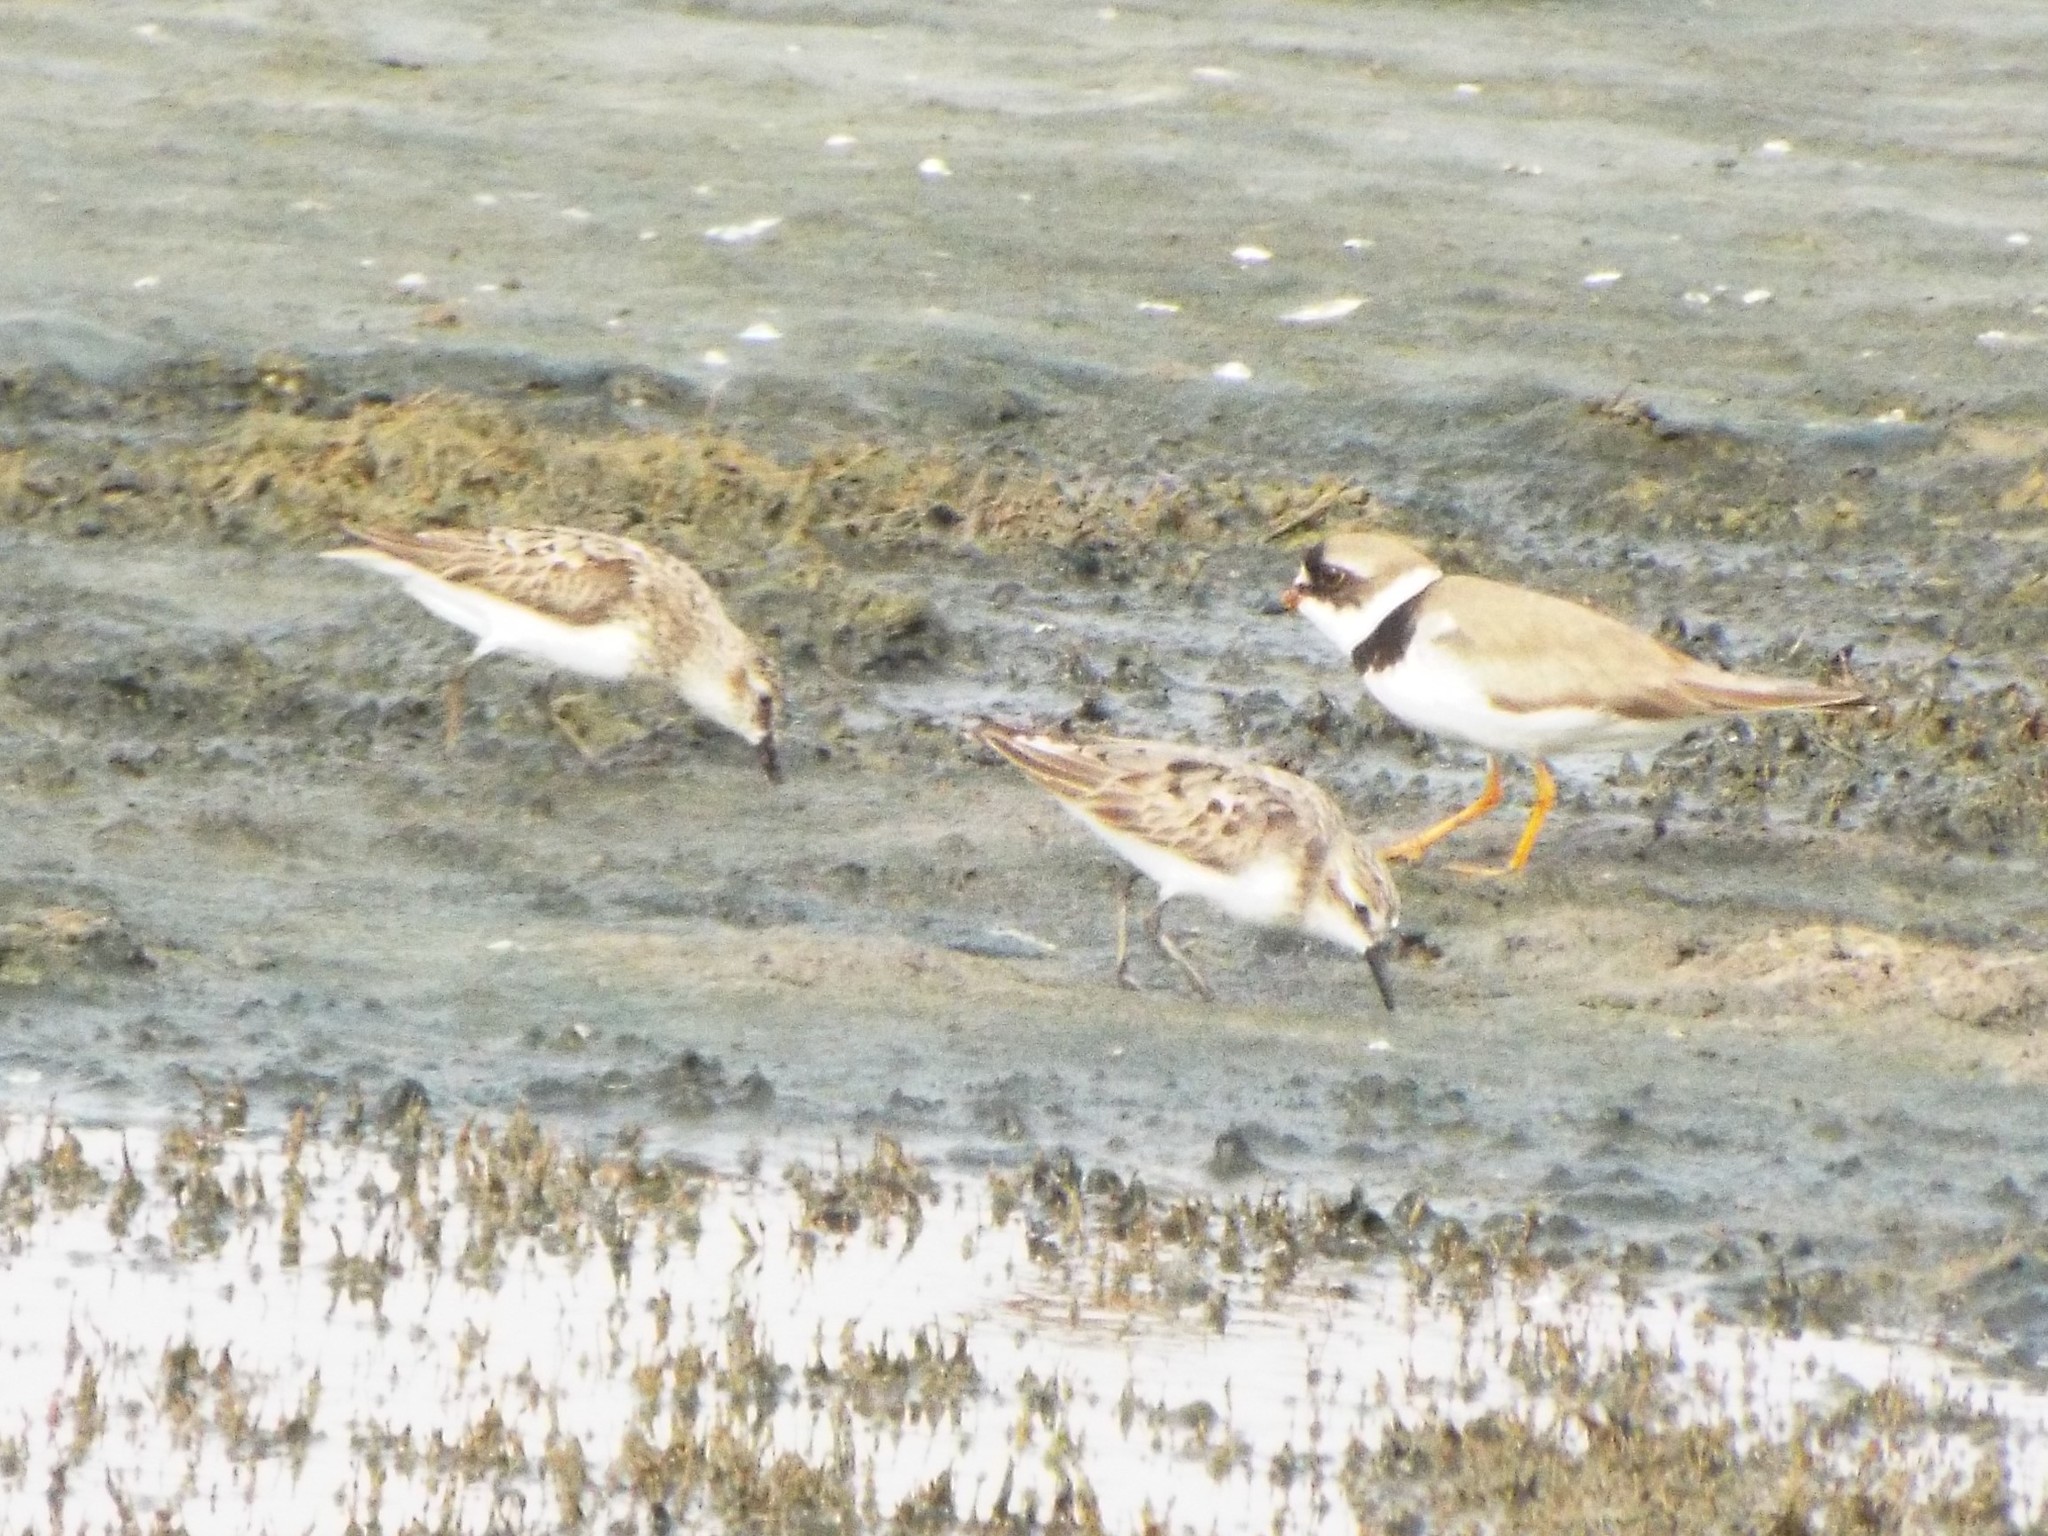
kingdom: Animalia
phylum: Chordata
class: Aves
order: Charadriiformes
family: Charadriidae
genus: Charadrius
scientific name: Charadrius semipalmatus
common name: Semipalmated plover
